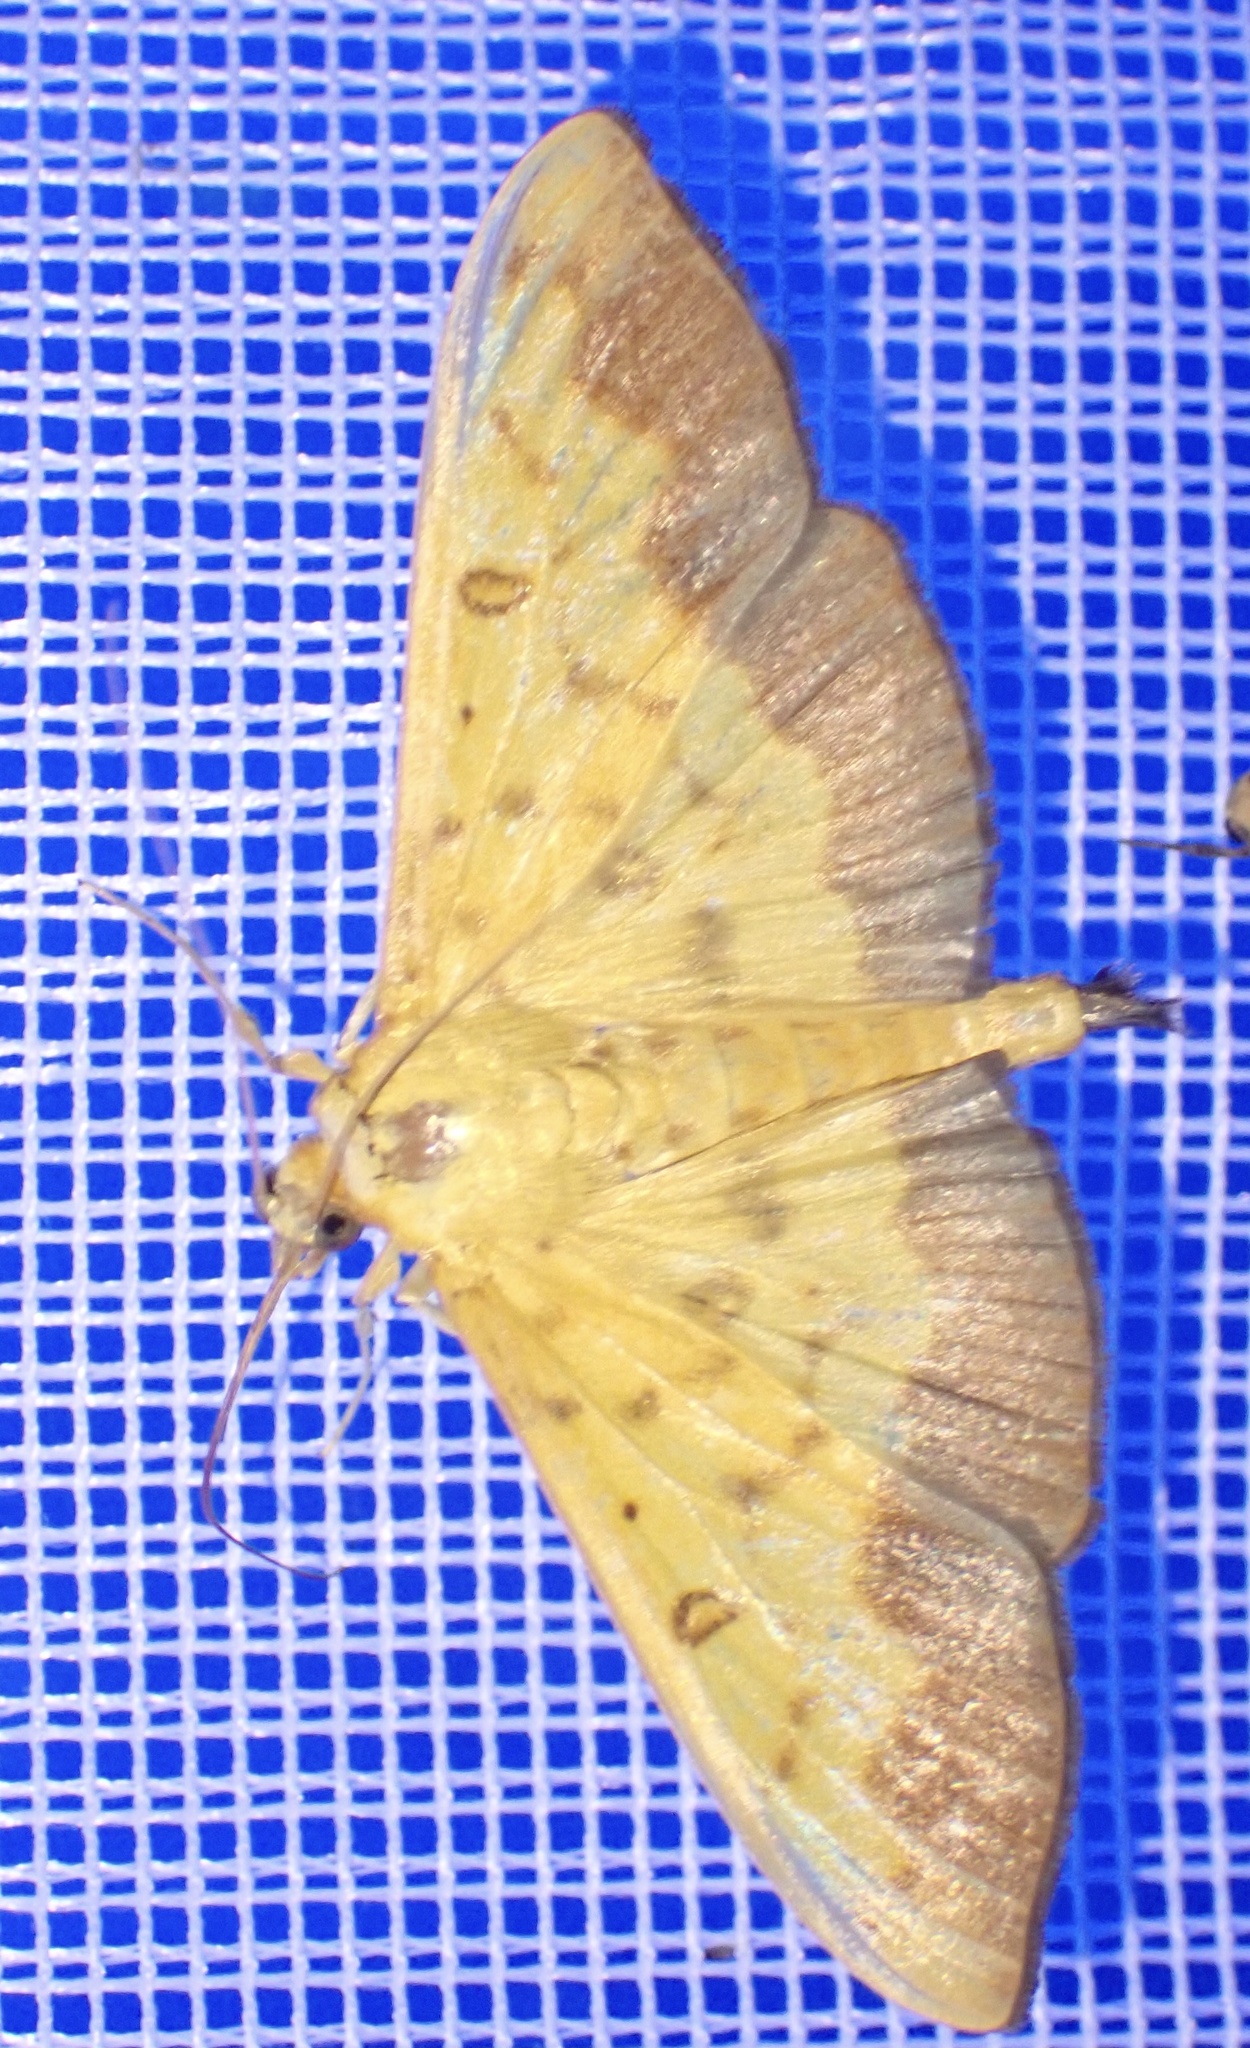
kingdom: Animalia
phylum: Arthropoda
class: Insecta
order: Lepidoptera
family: Crambidae
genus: Botyodes
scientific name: Botyodes asialis
